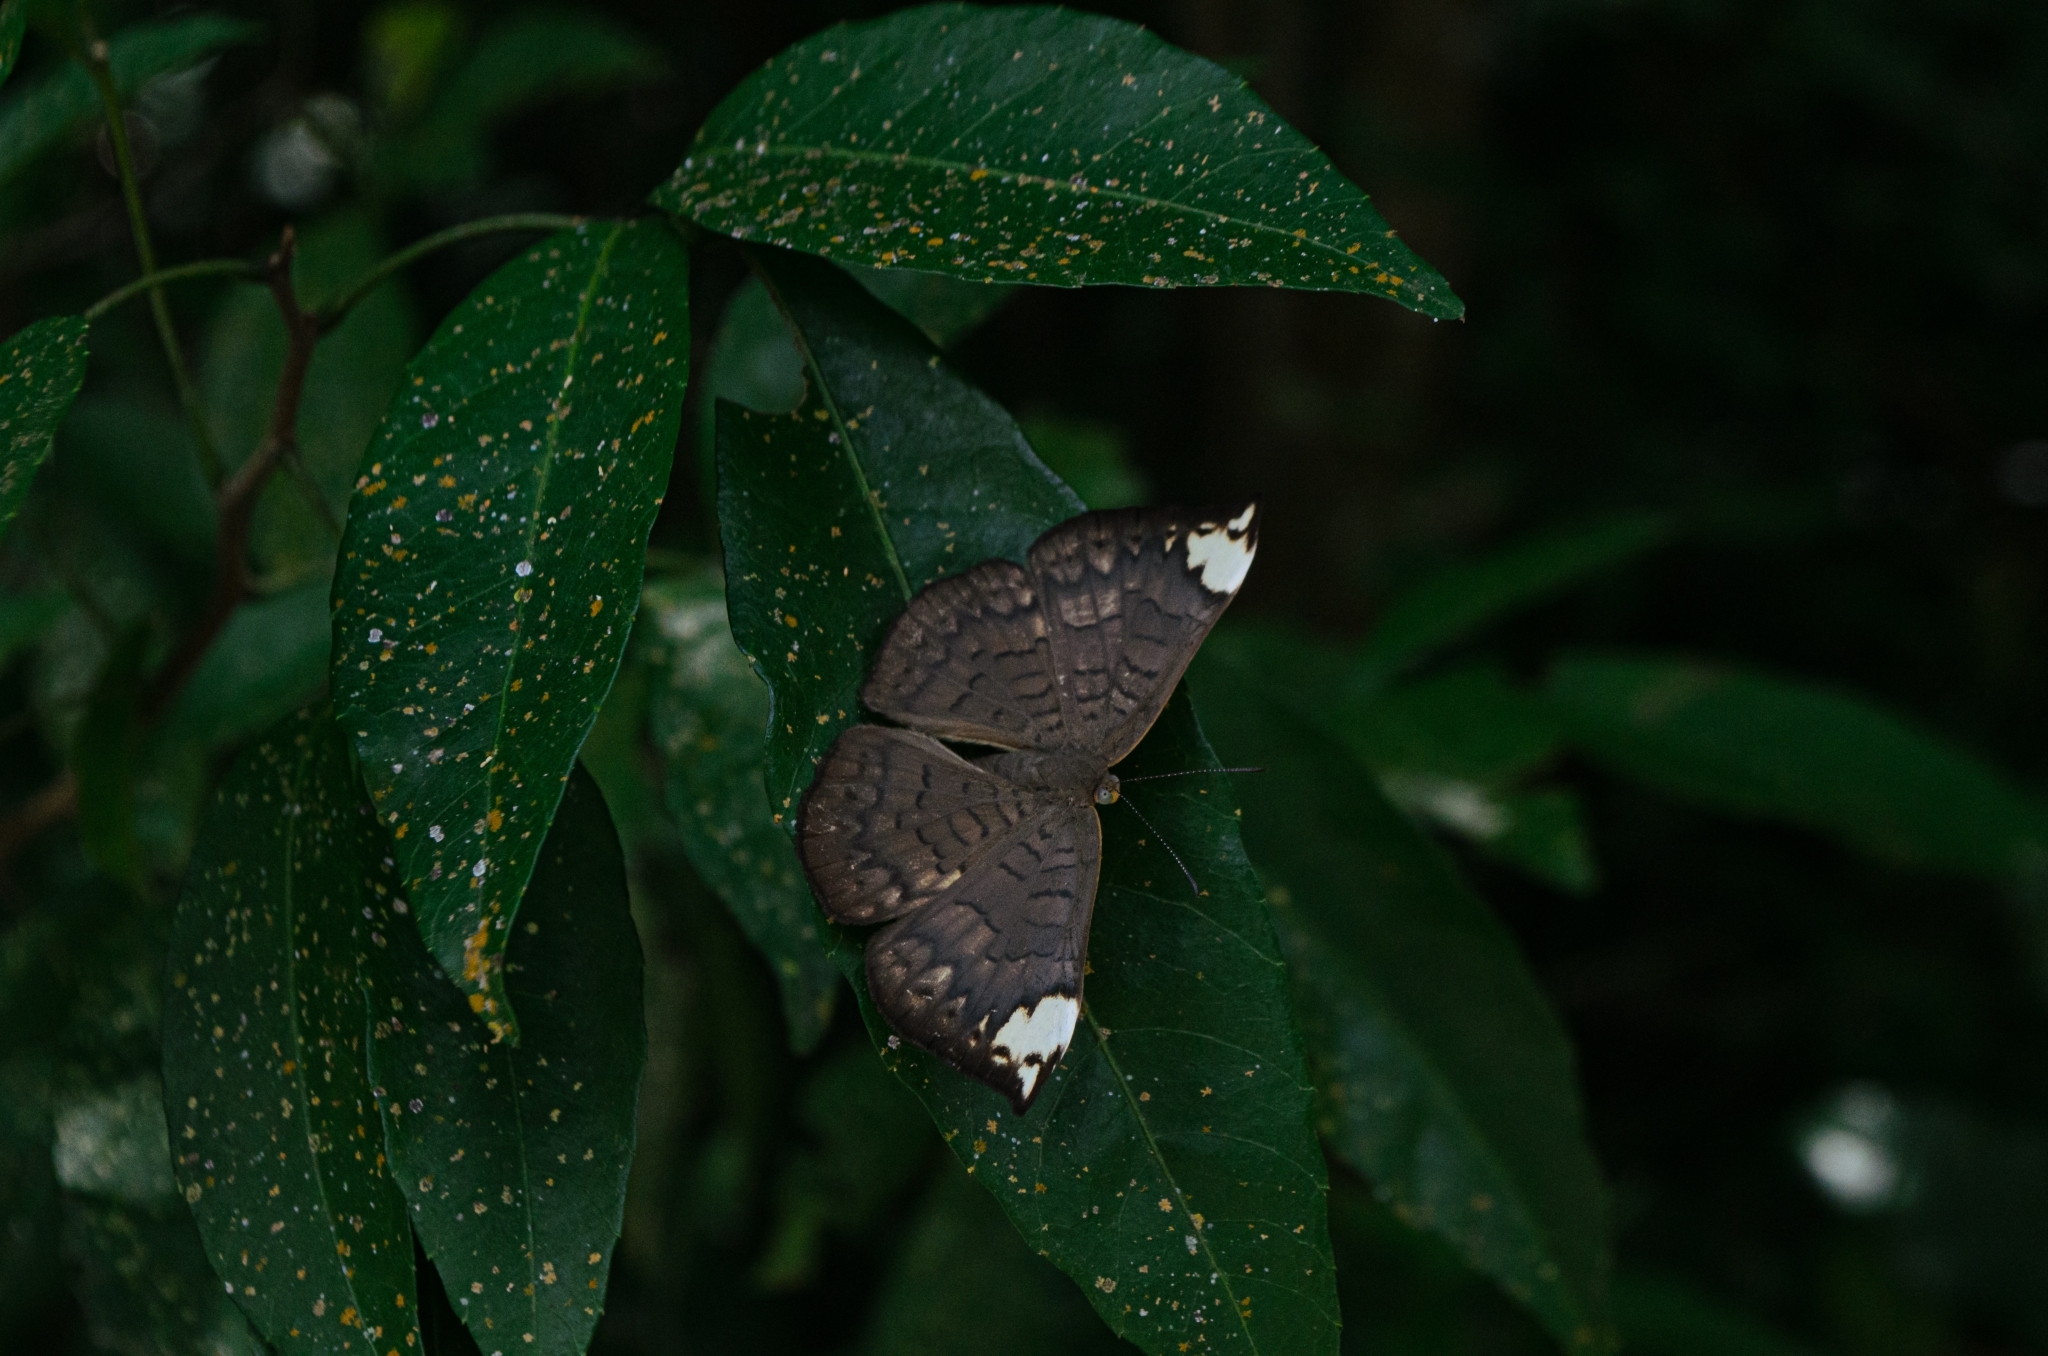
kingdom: Animalia
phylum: Arthropoda
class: Insecta
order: Lepidoptera
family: Lycaenidae
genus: Emesis
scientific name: Emesis lucinda
